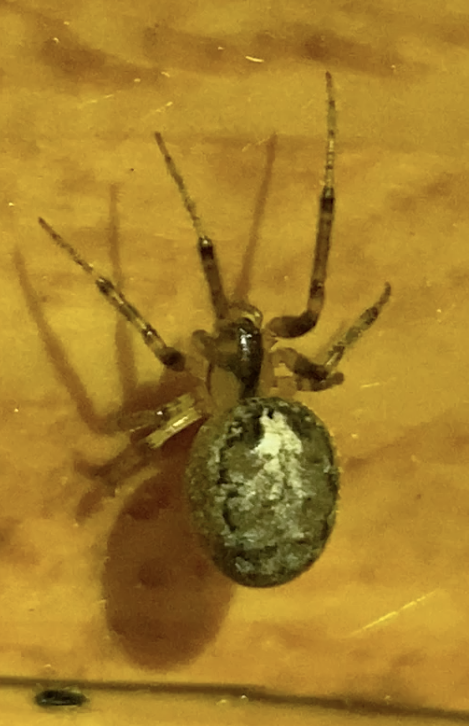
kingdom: Animalia
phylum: Arthropoda
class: Arachnida
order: Araneae
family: Araneidae
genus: Zygiella
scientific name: Zygiella x-notata
